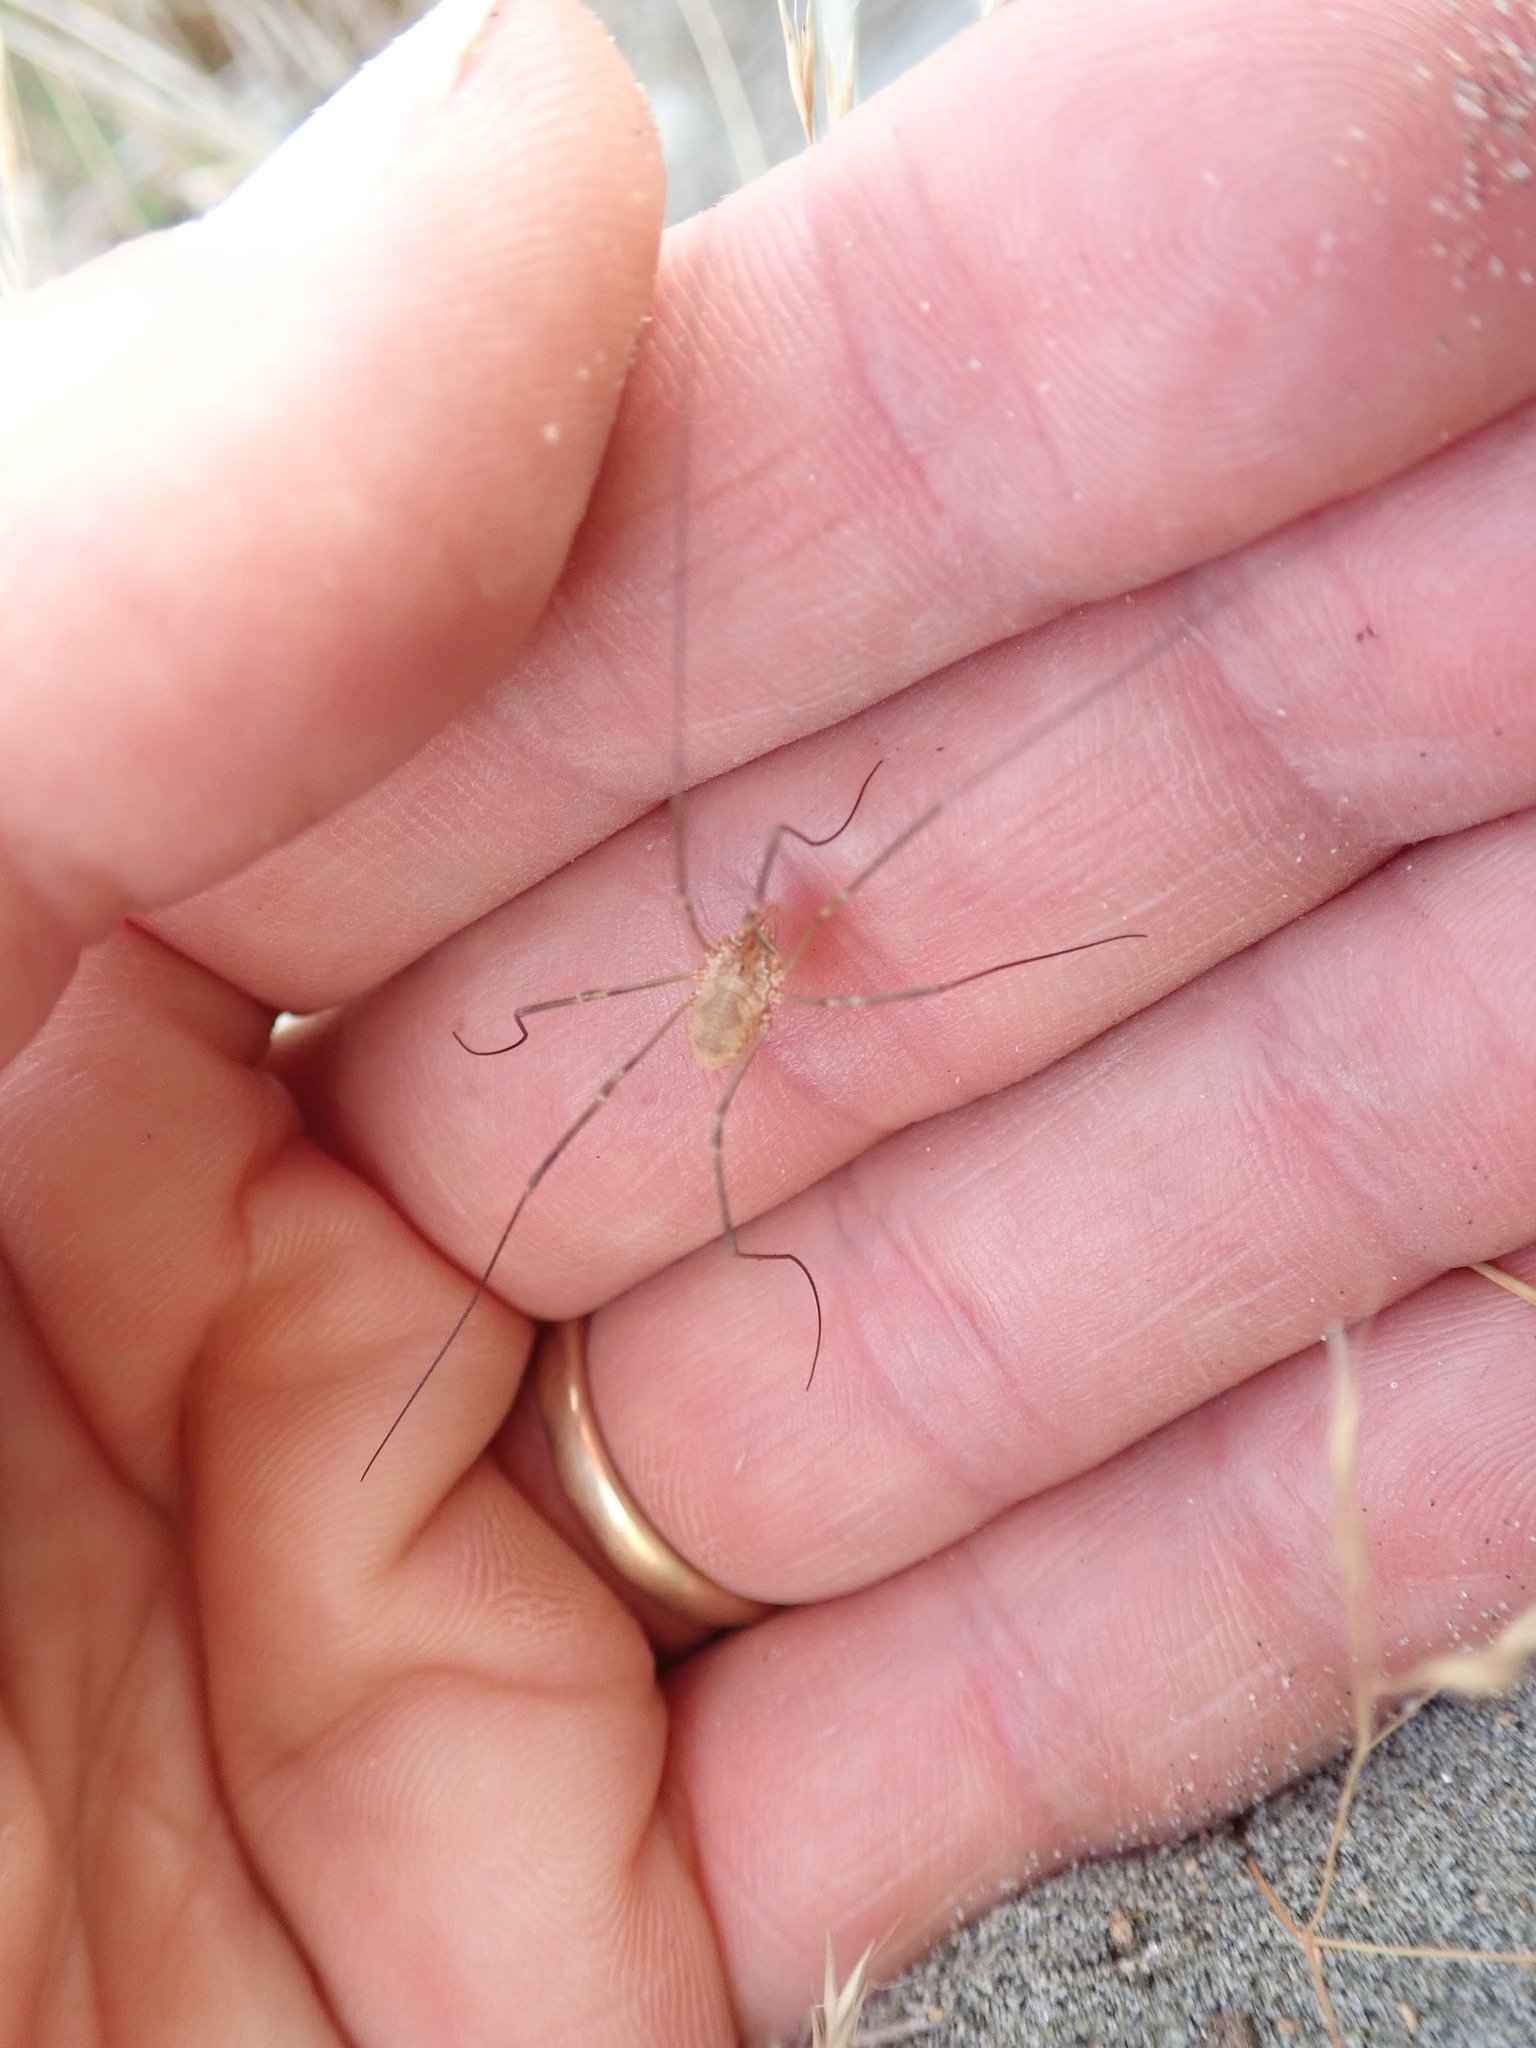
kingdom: Animalia
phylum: Arthropoda
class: Arachnida
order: Opiliones
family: Phalangiidae
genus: Phalangium
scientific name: Phalangium opilio
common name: Daddy longleg
